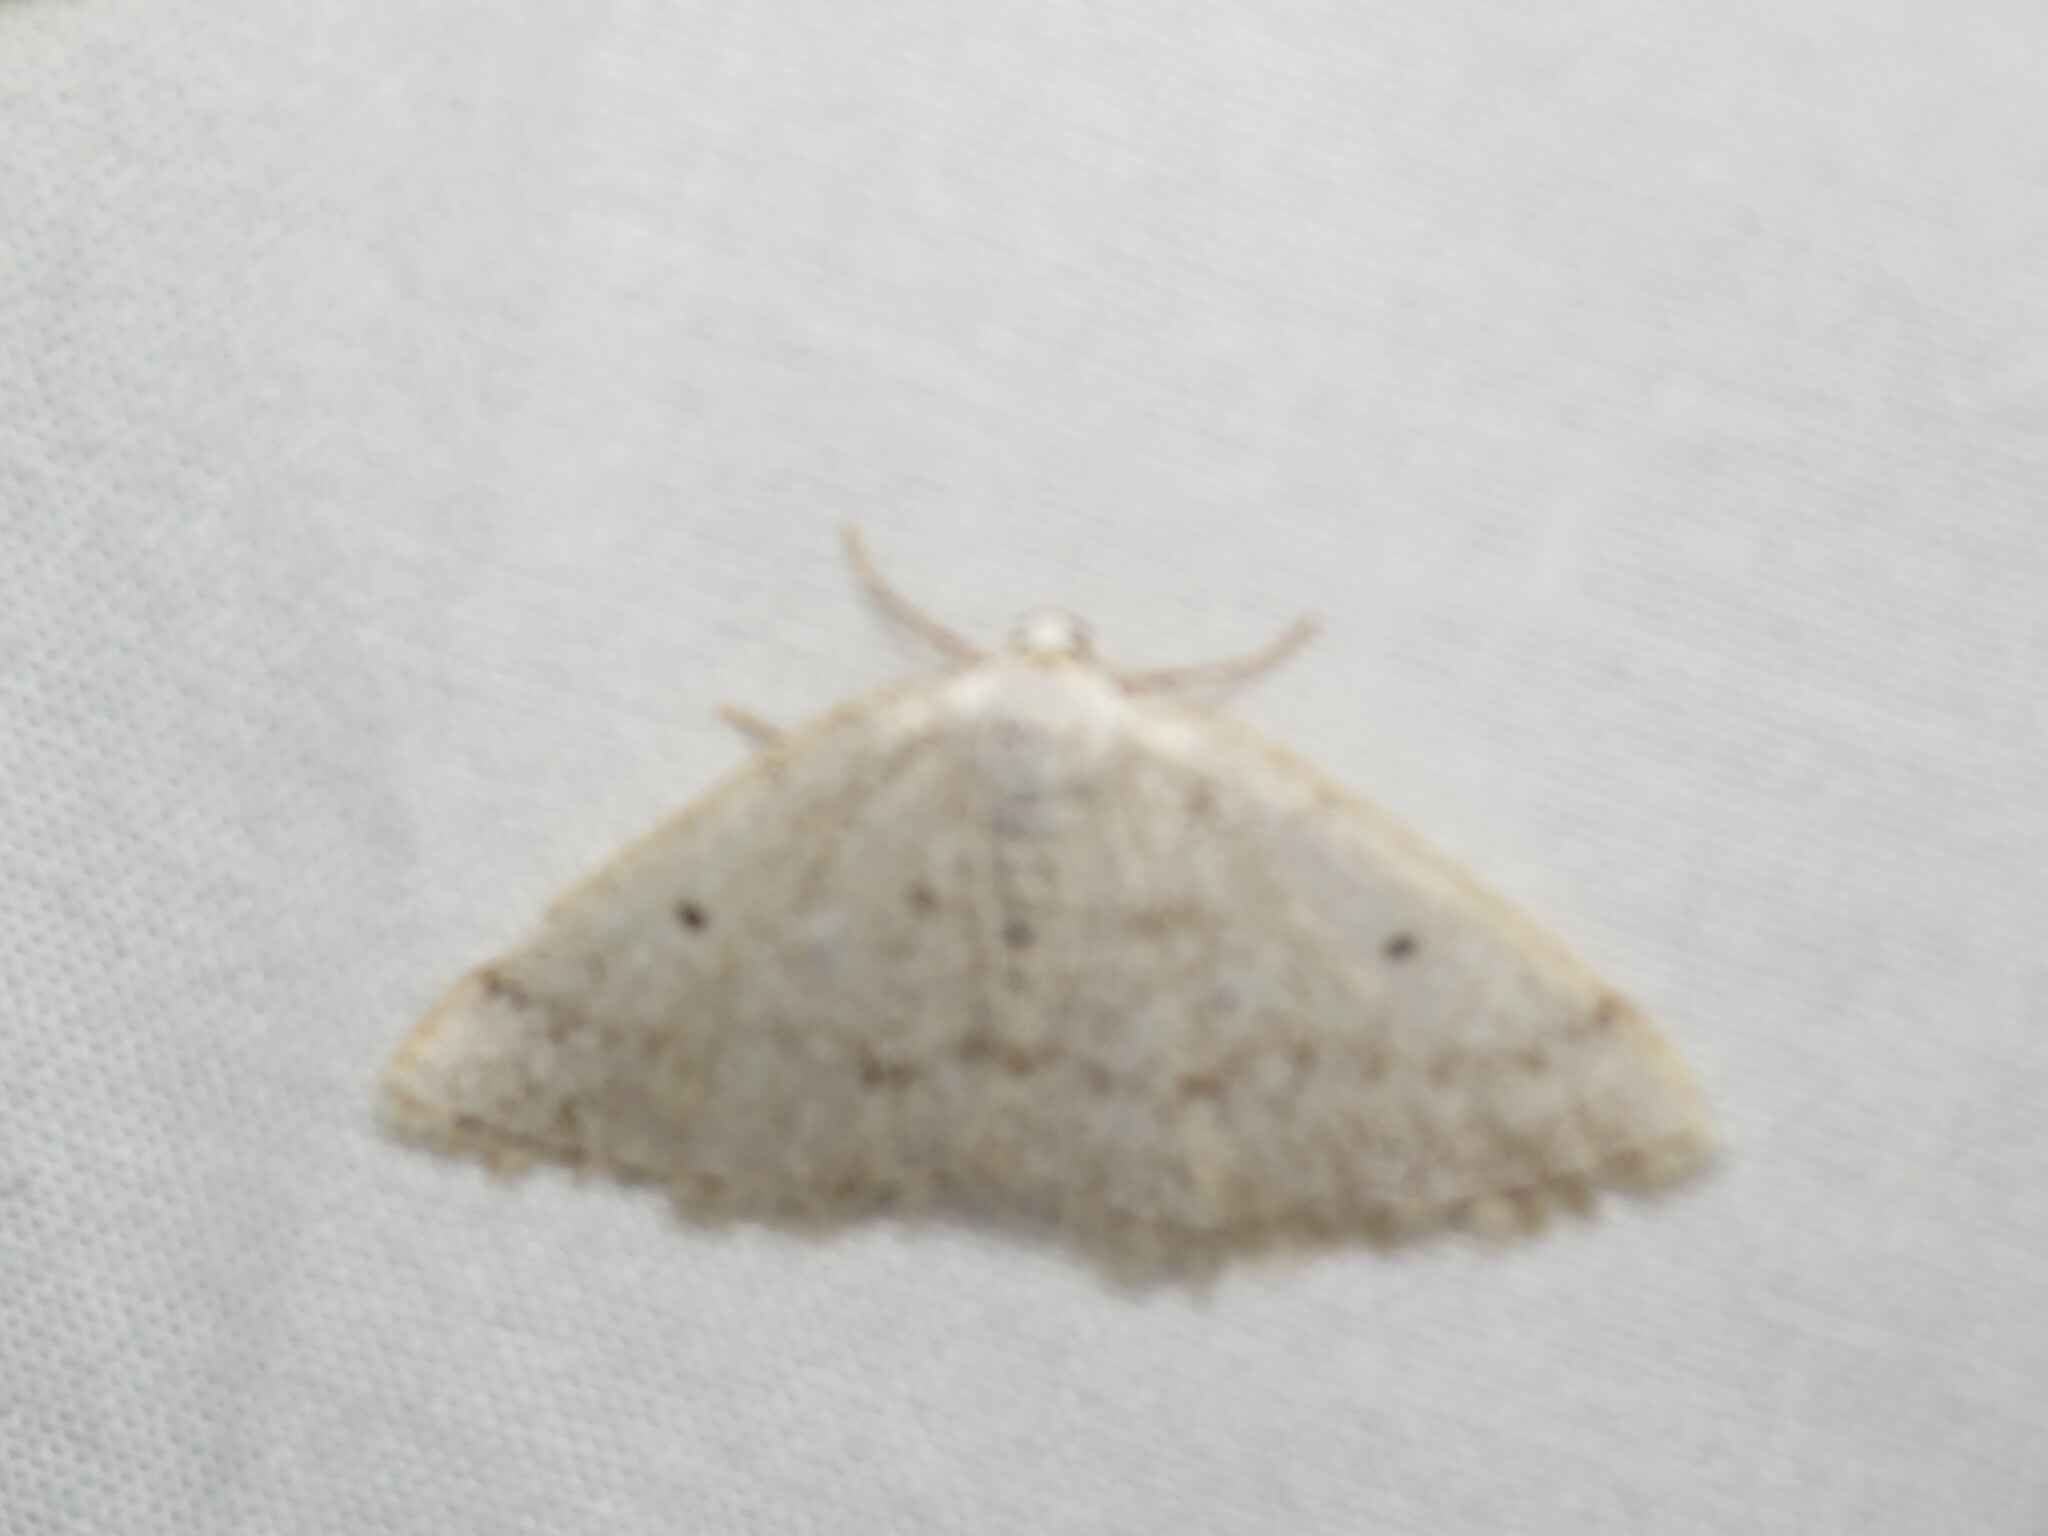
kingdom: Animalia
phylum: Arthropoda
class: Insecta
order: Lepidoptera
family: Geometridae
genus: Lomographa
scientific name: Lomographa glomeraria
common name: Gray spring moth
